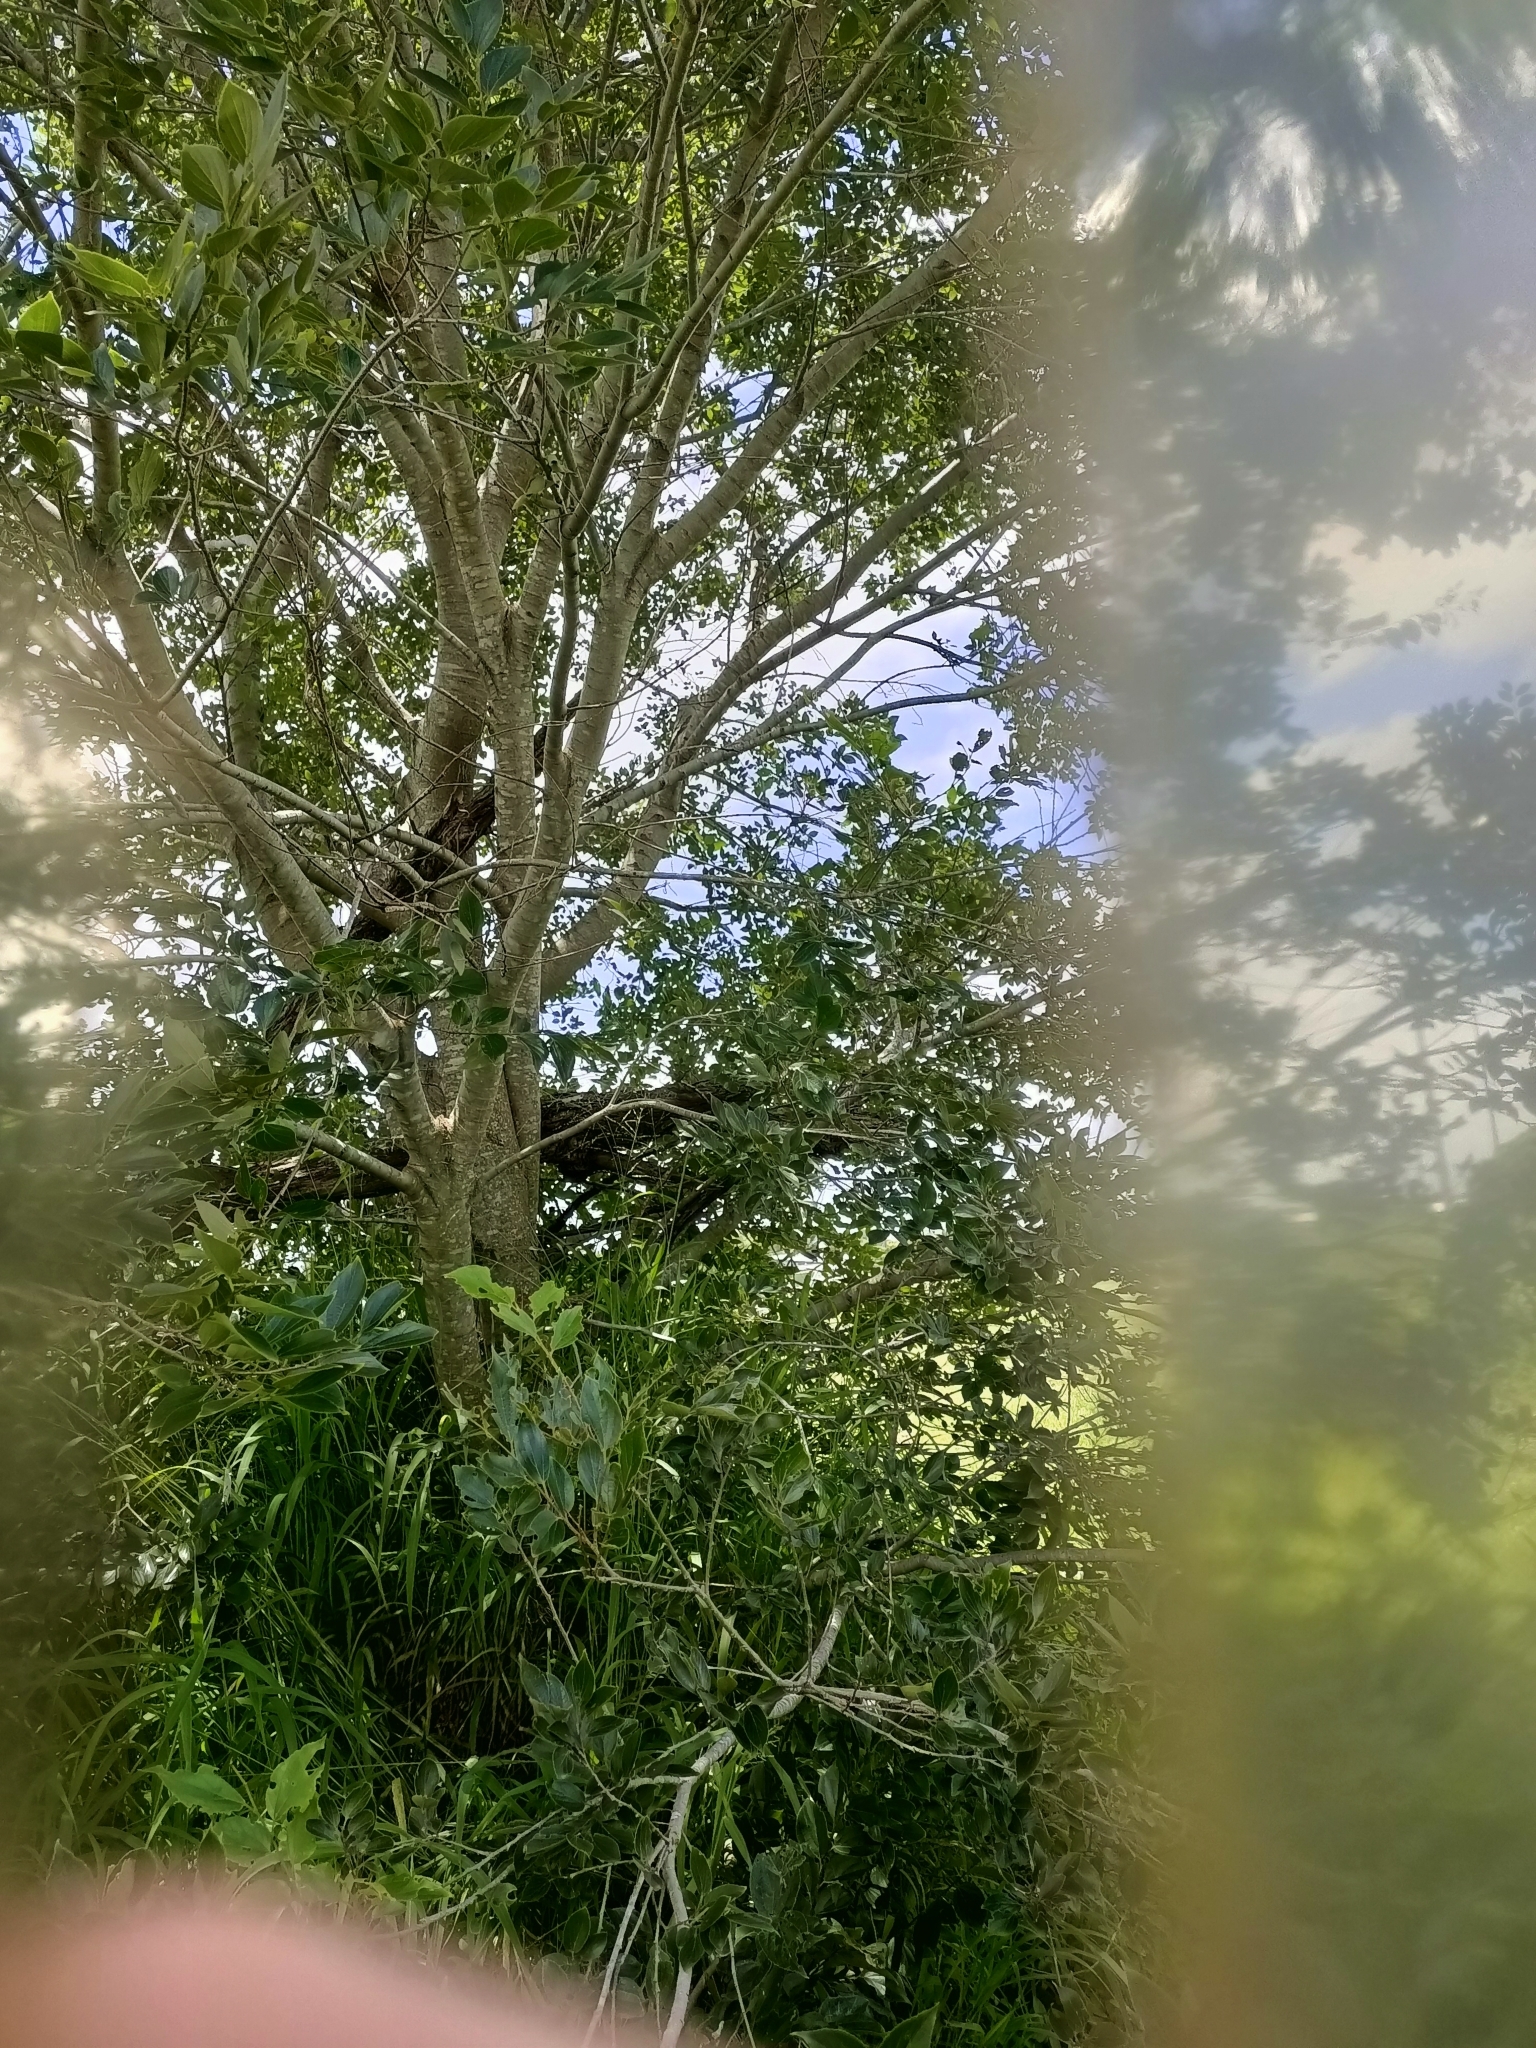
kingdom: Plantae
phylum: Tracheophyta
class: Magnoliopsida
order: Rosales
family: Cannabaceae
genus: Celtis
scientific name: Celtis sinensis
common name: Chinese hackberry
